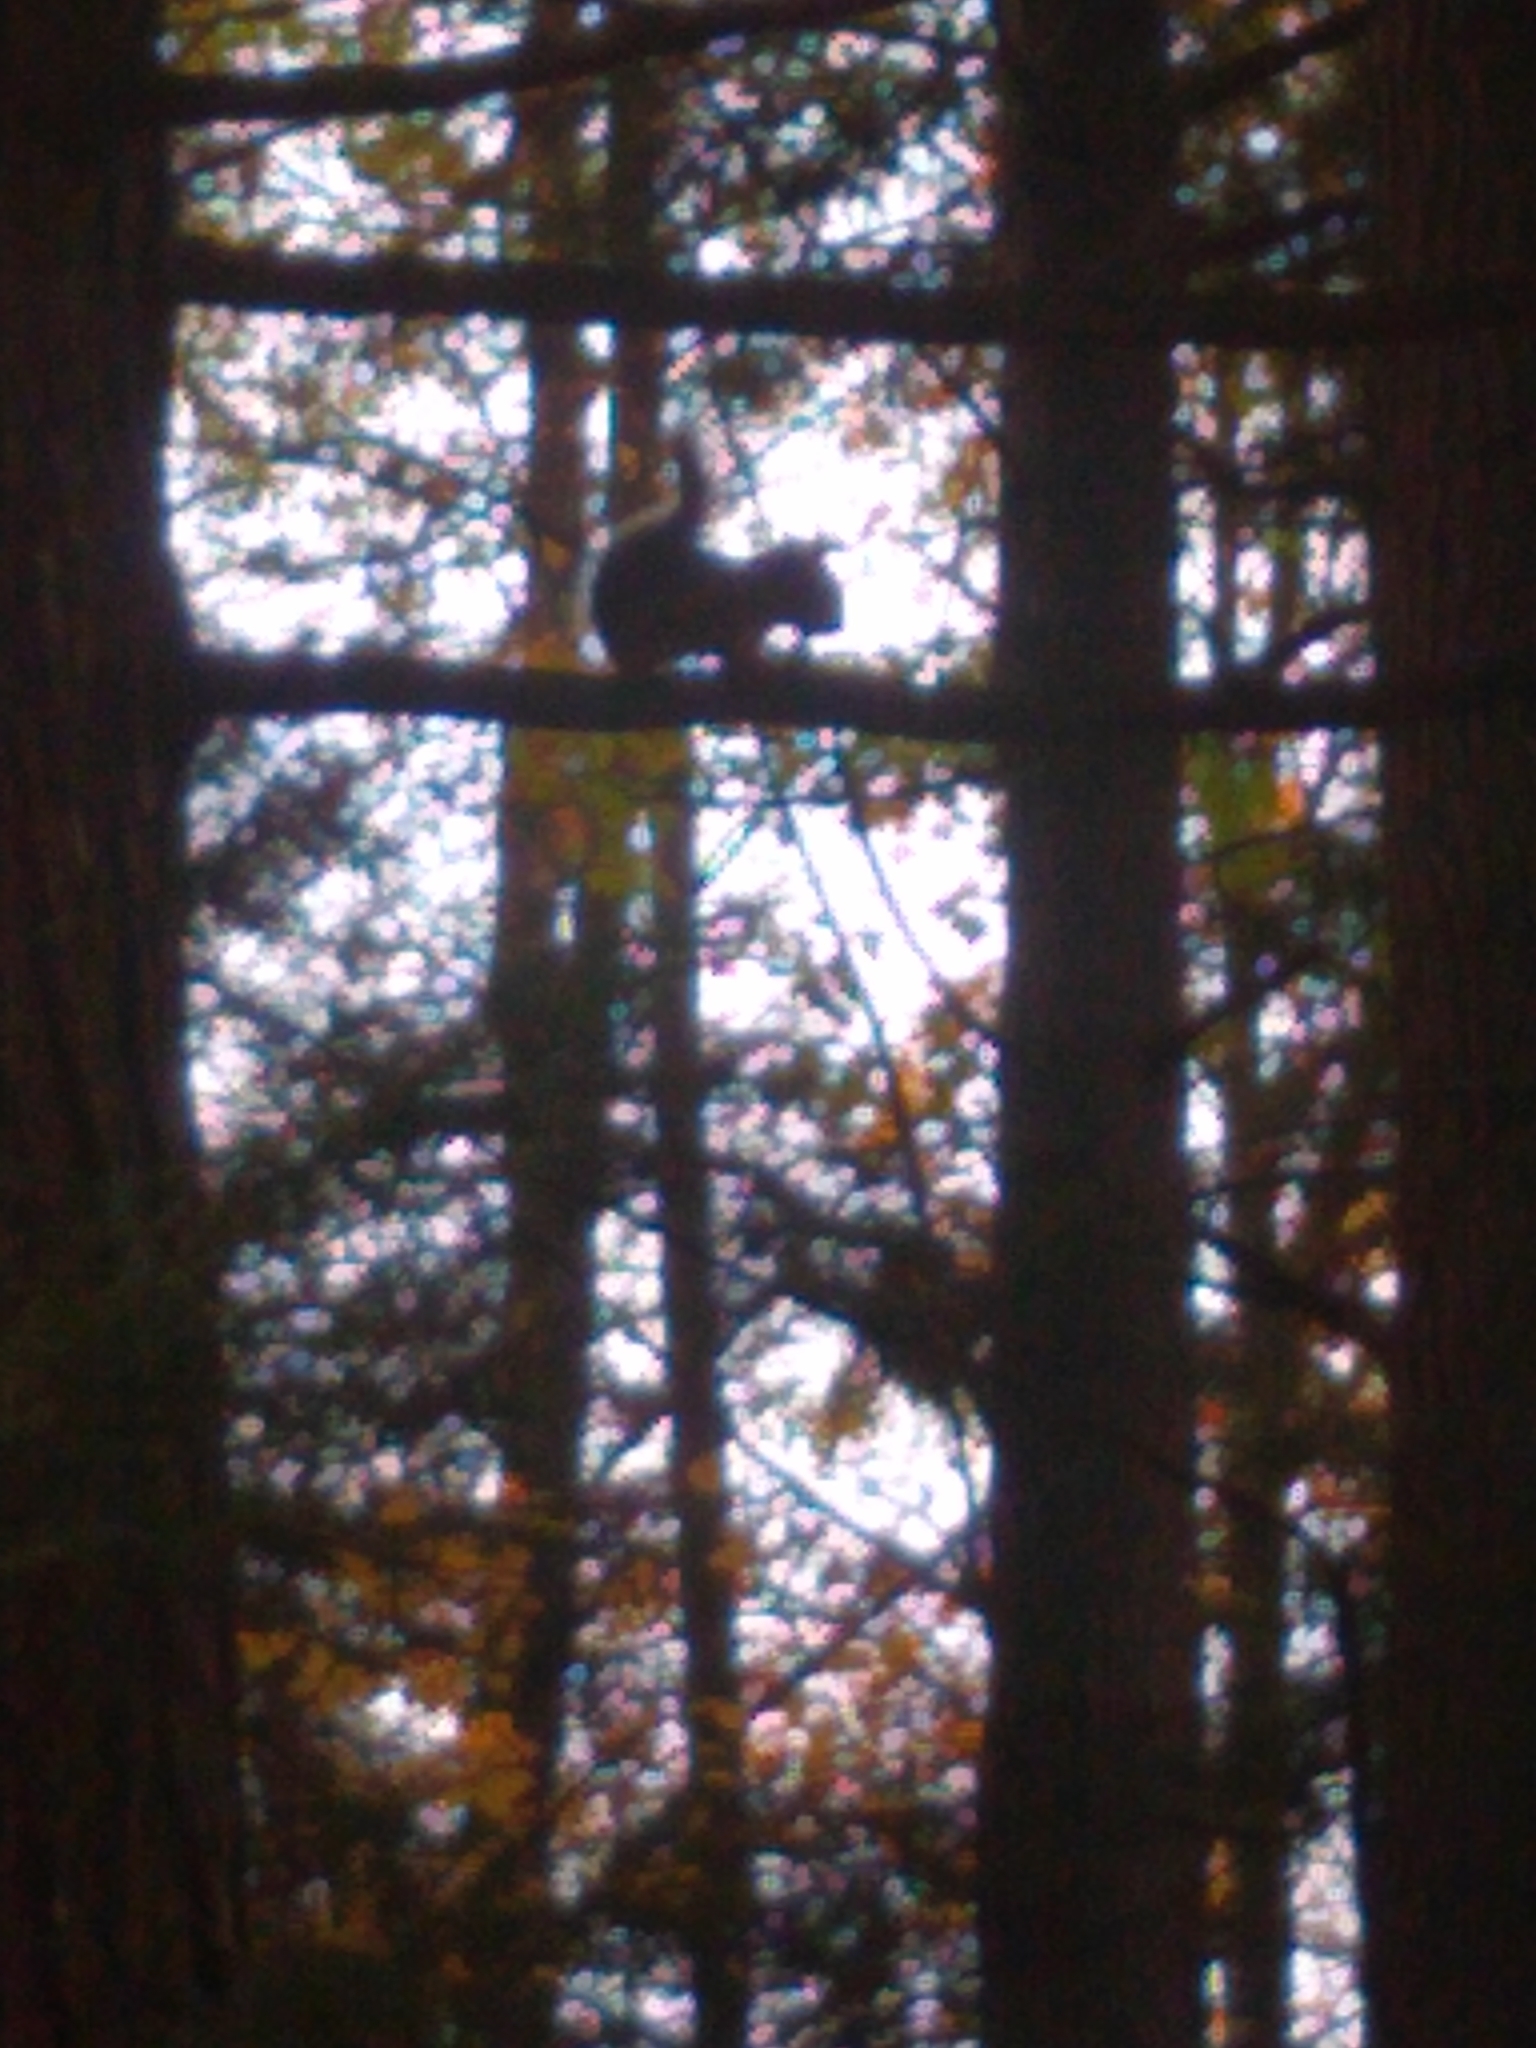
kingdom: Animalia
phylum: Chordata
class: Mammalia
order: Rodentia
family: Sciuridae
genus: Tamiasciurus
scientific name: Tamiasciurus hudsonicus
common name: Red squirrel
